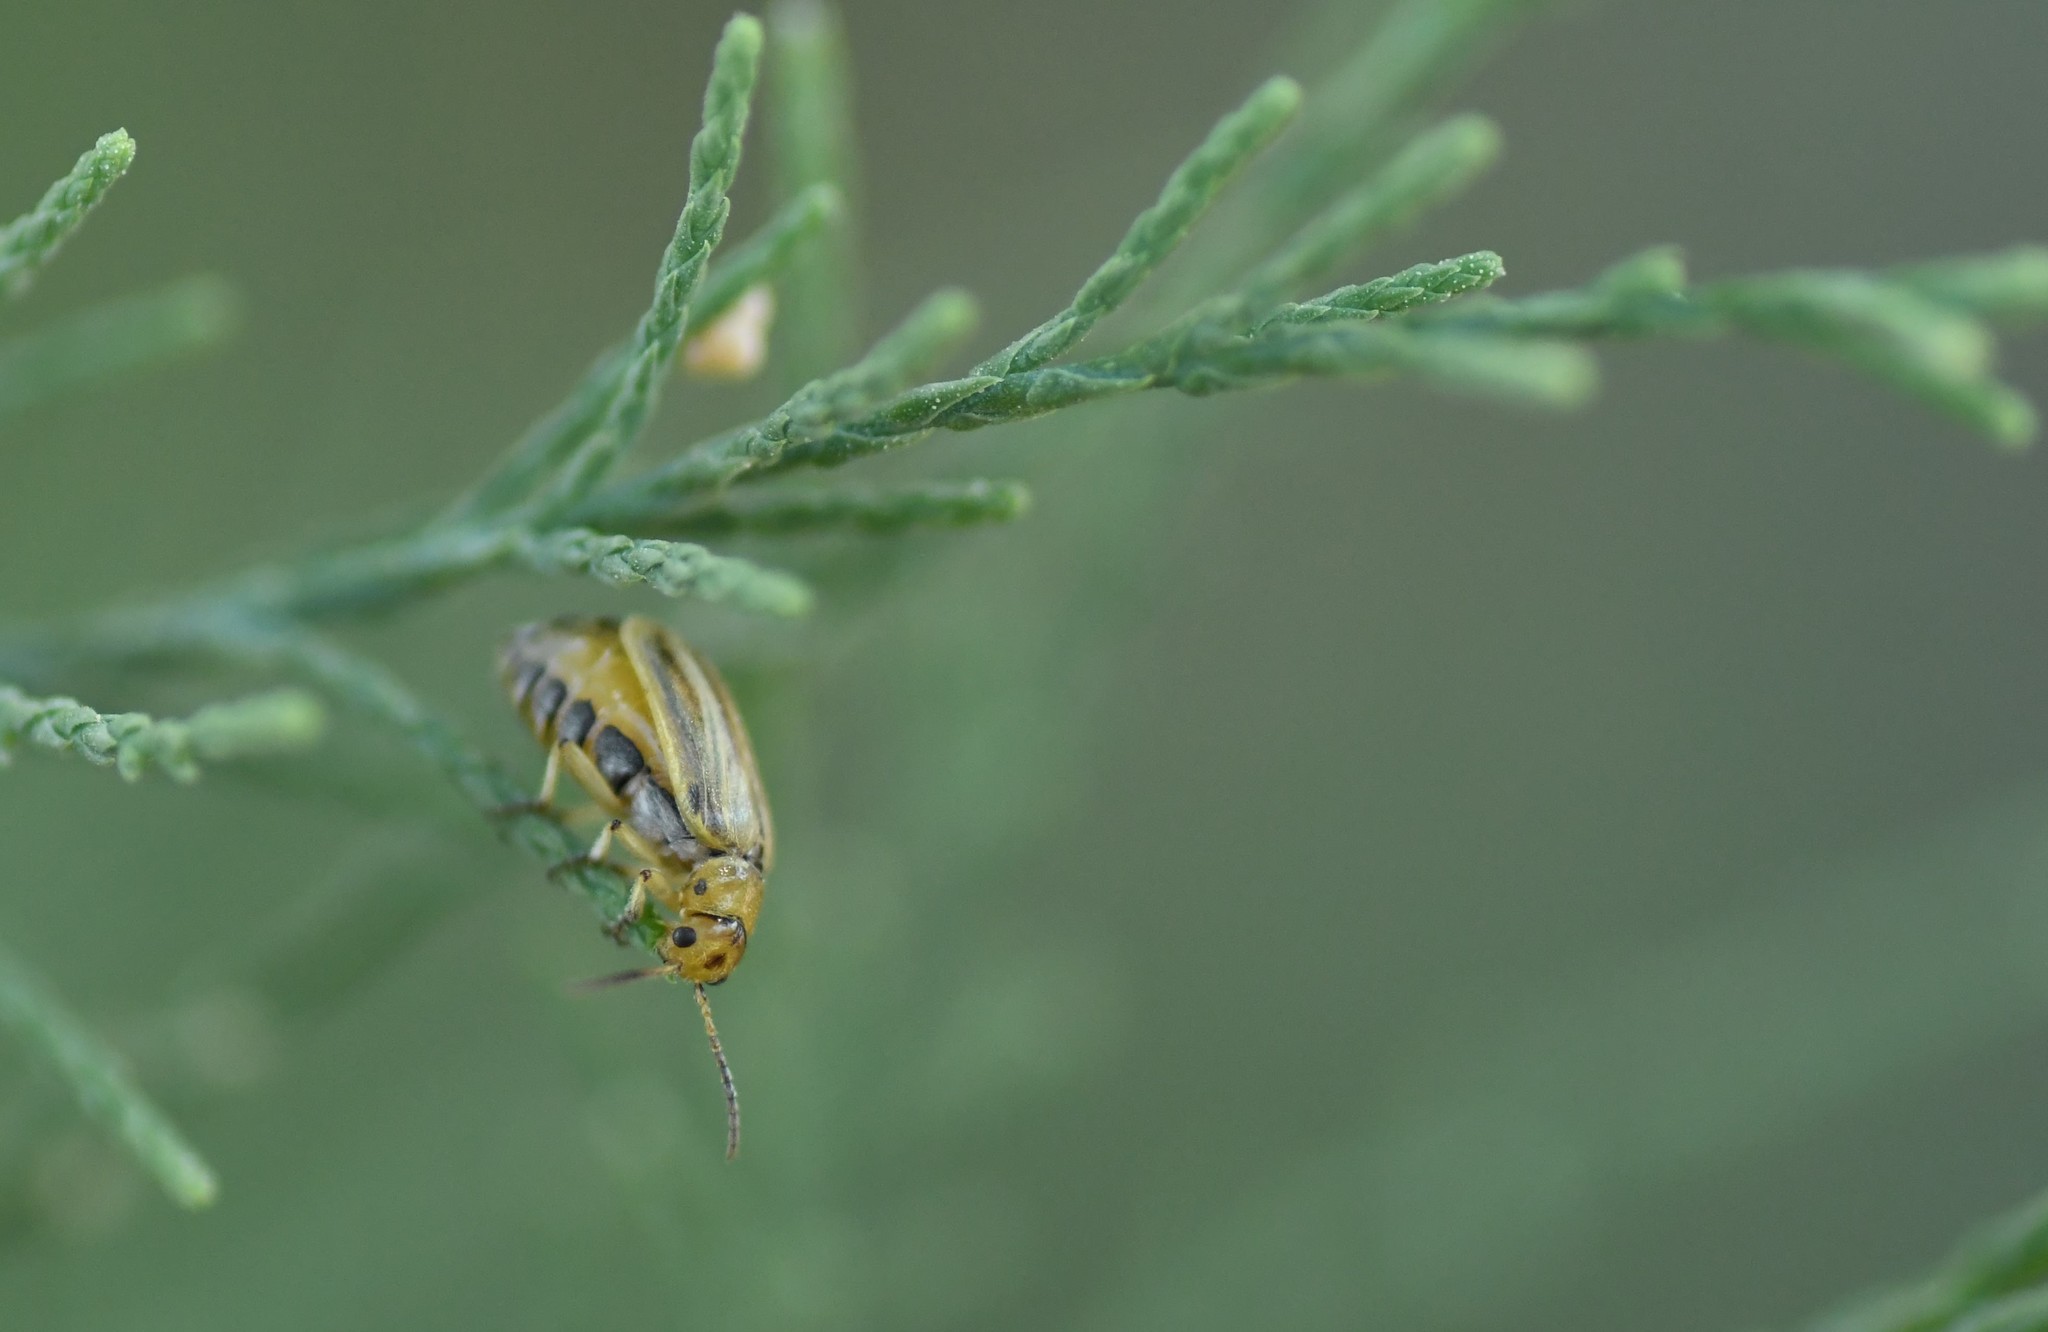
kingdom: Animalia
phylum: Arthropoda
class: Insecta
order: Coleoptera
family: Chrysomelidae
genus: Diorhabda
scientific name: Diorhabda carinulata
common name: Tamarisk leaf beetle
